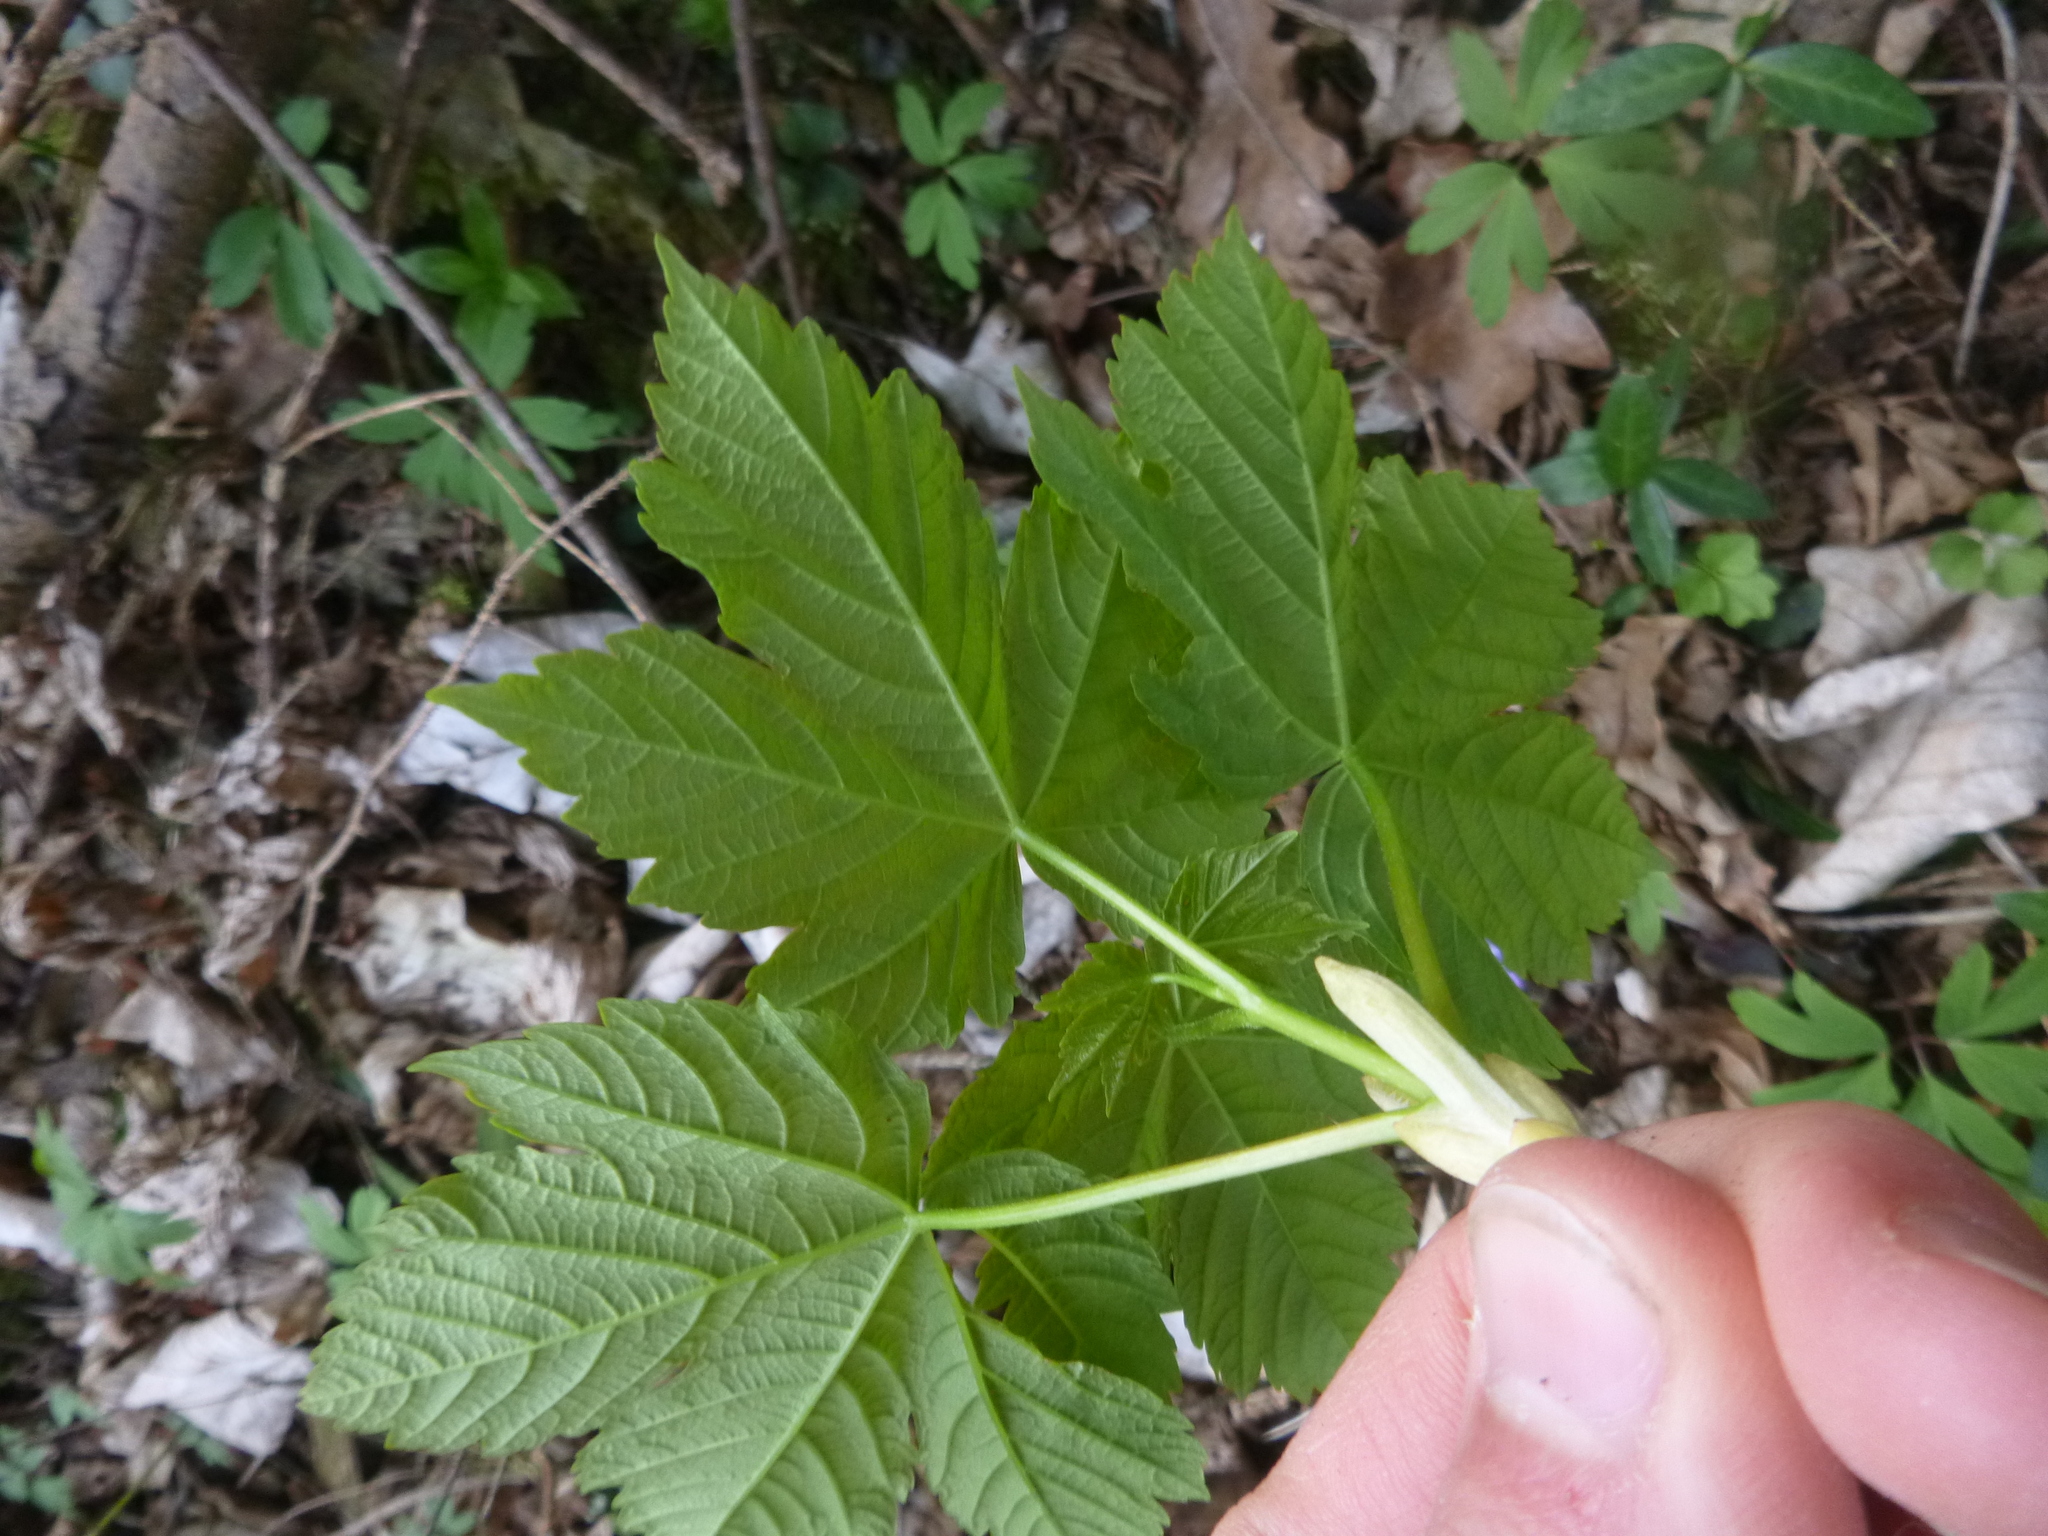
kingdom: Plantae
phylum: Tracheophyta
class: Magnoliopsida
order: Sapindales
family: Sapindaceae
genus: Acer
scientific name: Acer pseudoplatanus
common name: Sycamore
